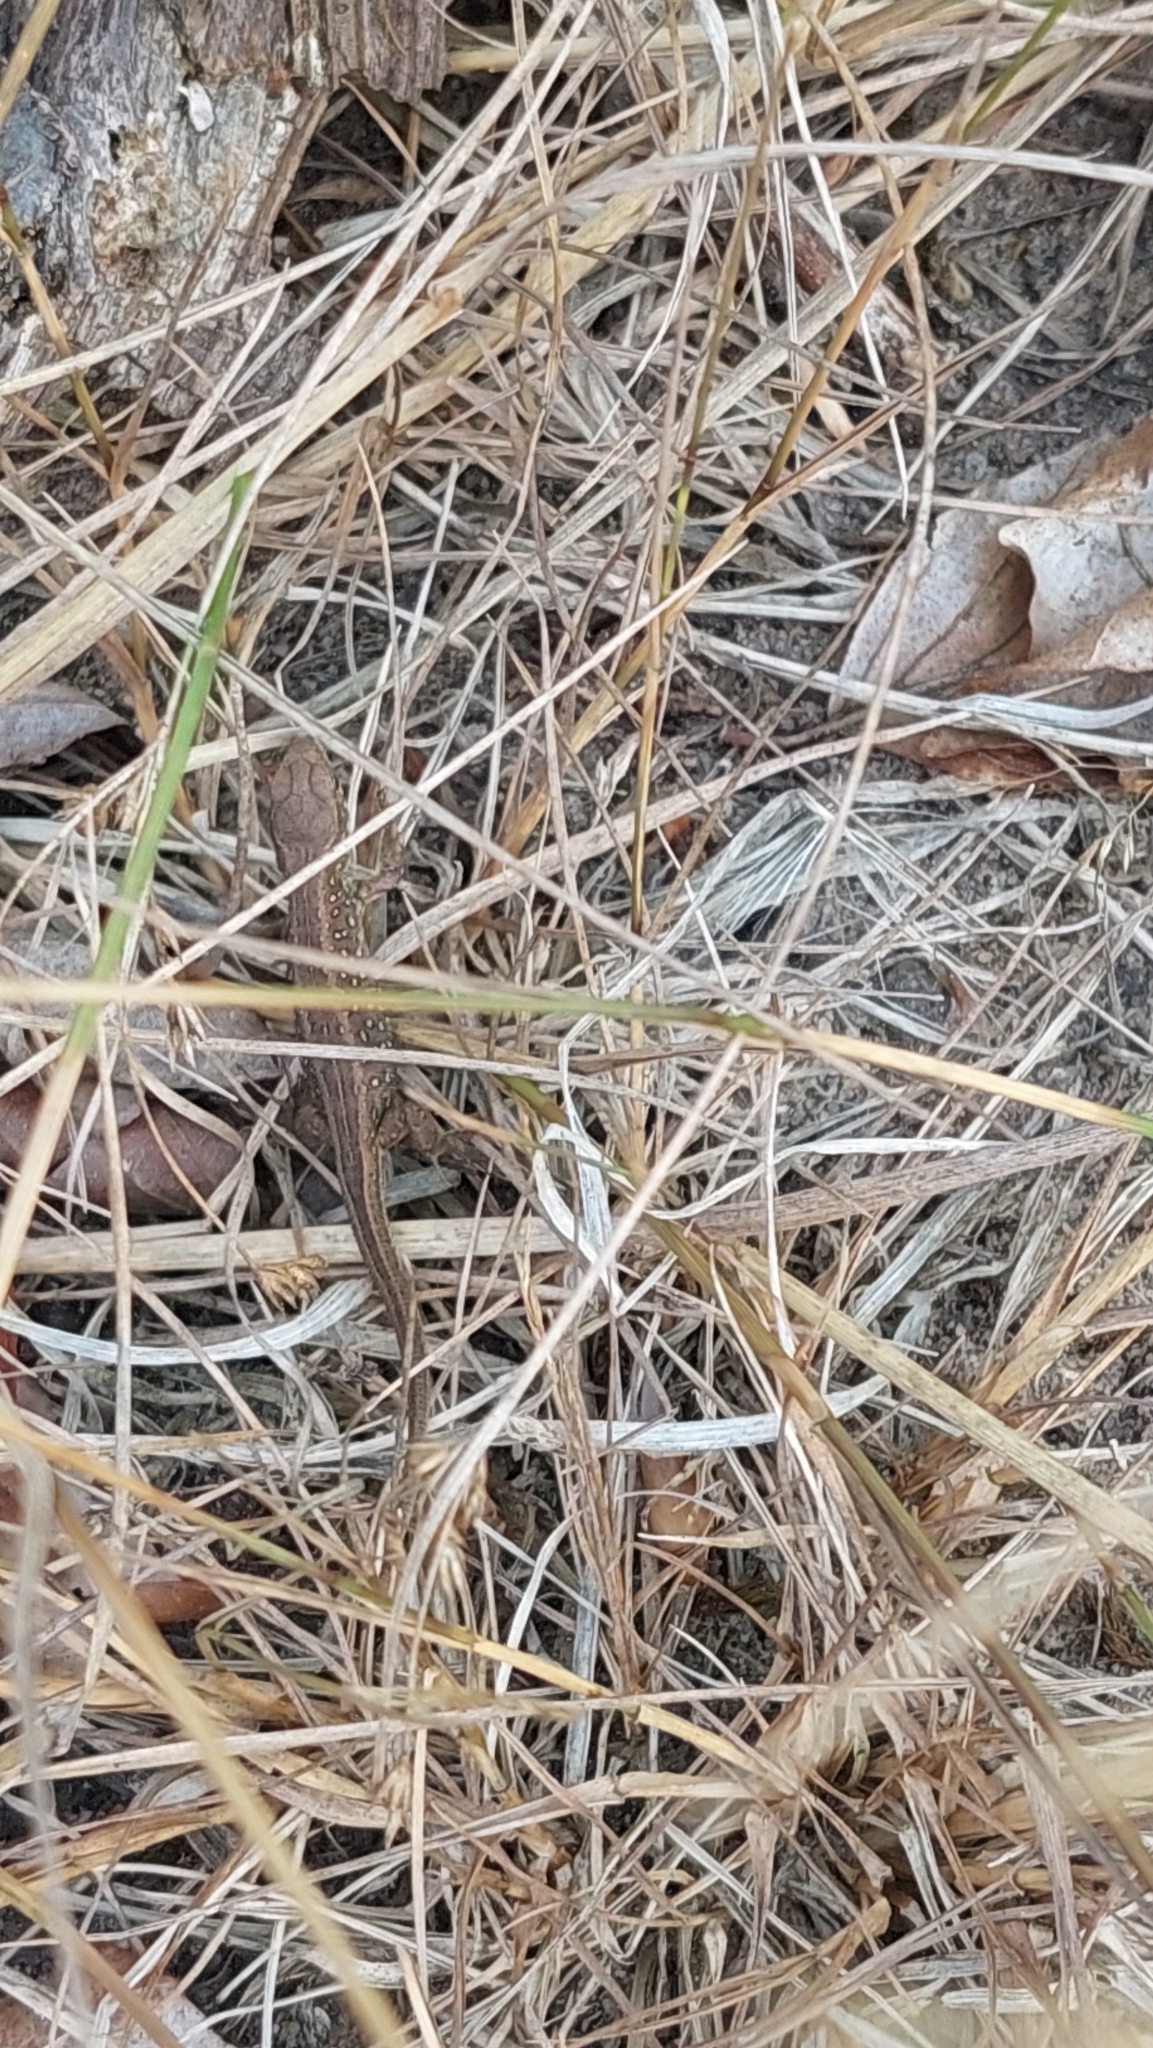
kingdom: Animalia
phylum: Chordata
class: Squamata
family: Lacertidae
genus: Lacerta
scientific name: Lacerta agilis
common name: Sand lizard
